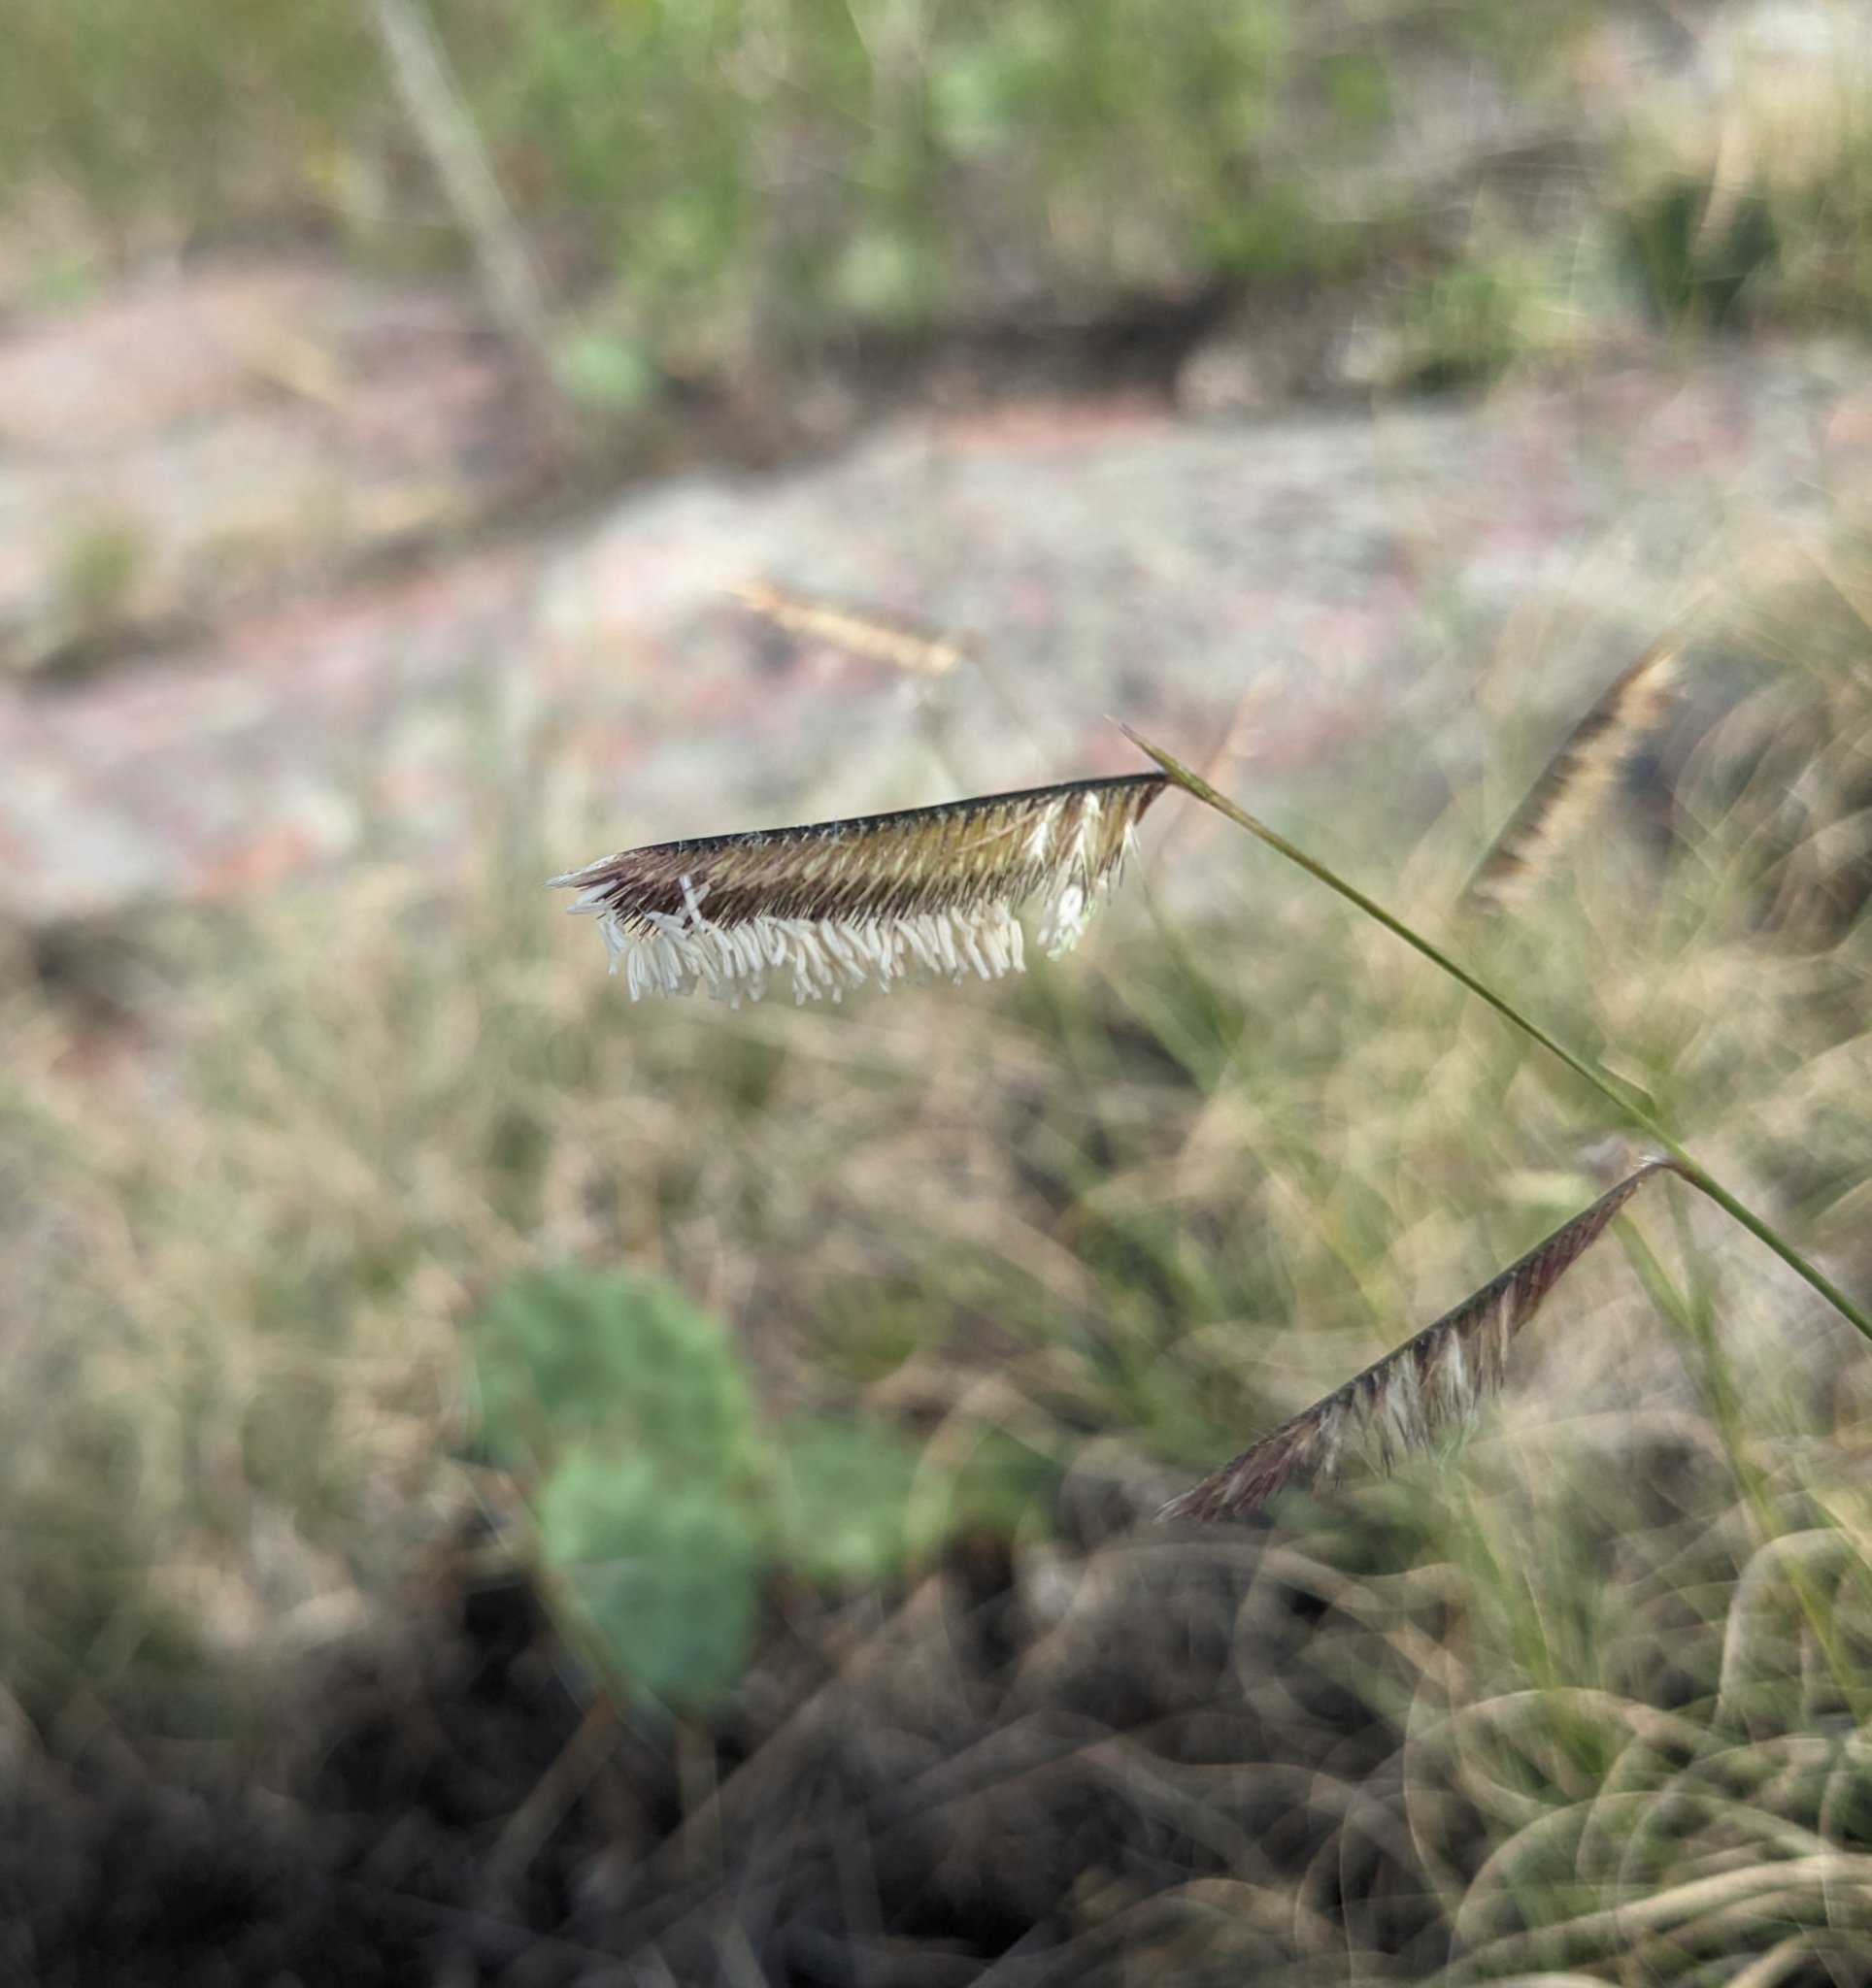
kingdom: Plantae
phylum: Tracheophyta
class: Liliopsida
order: Poales
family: Poaceae
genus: Bouteloua
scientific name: Bouteloua gracilis
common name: Blue grama
